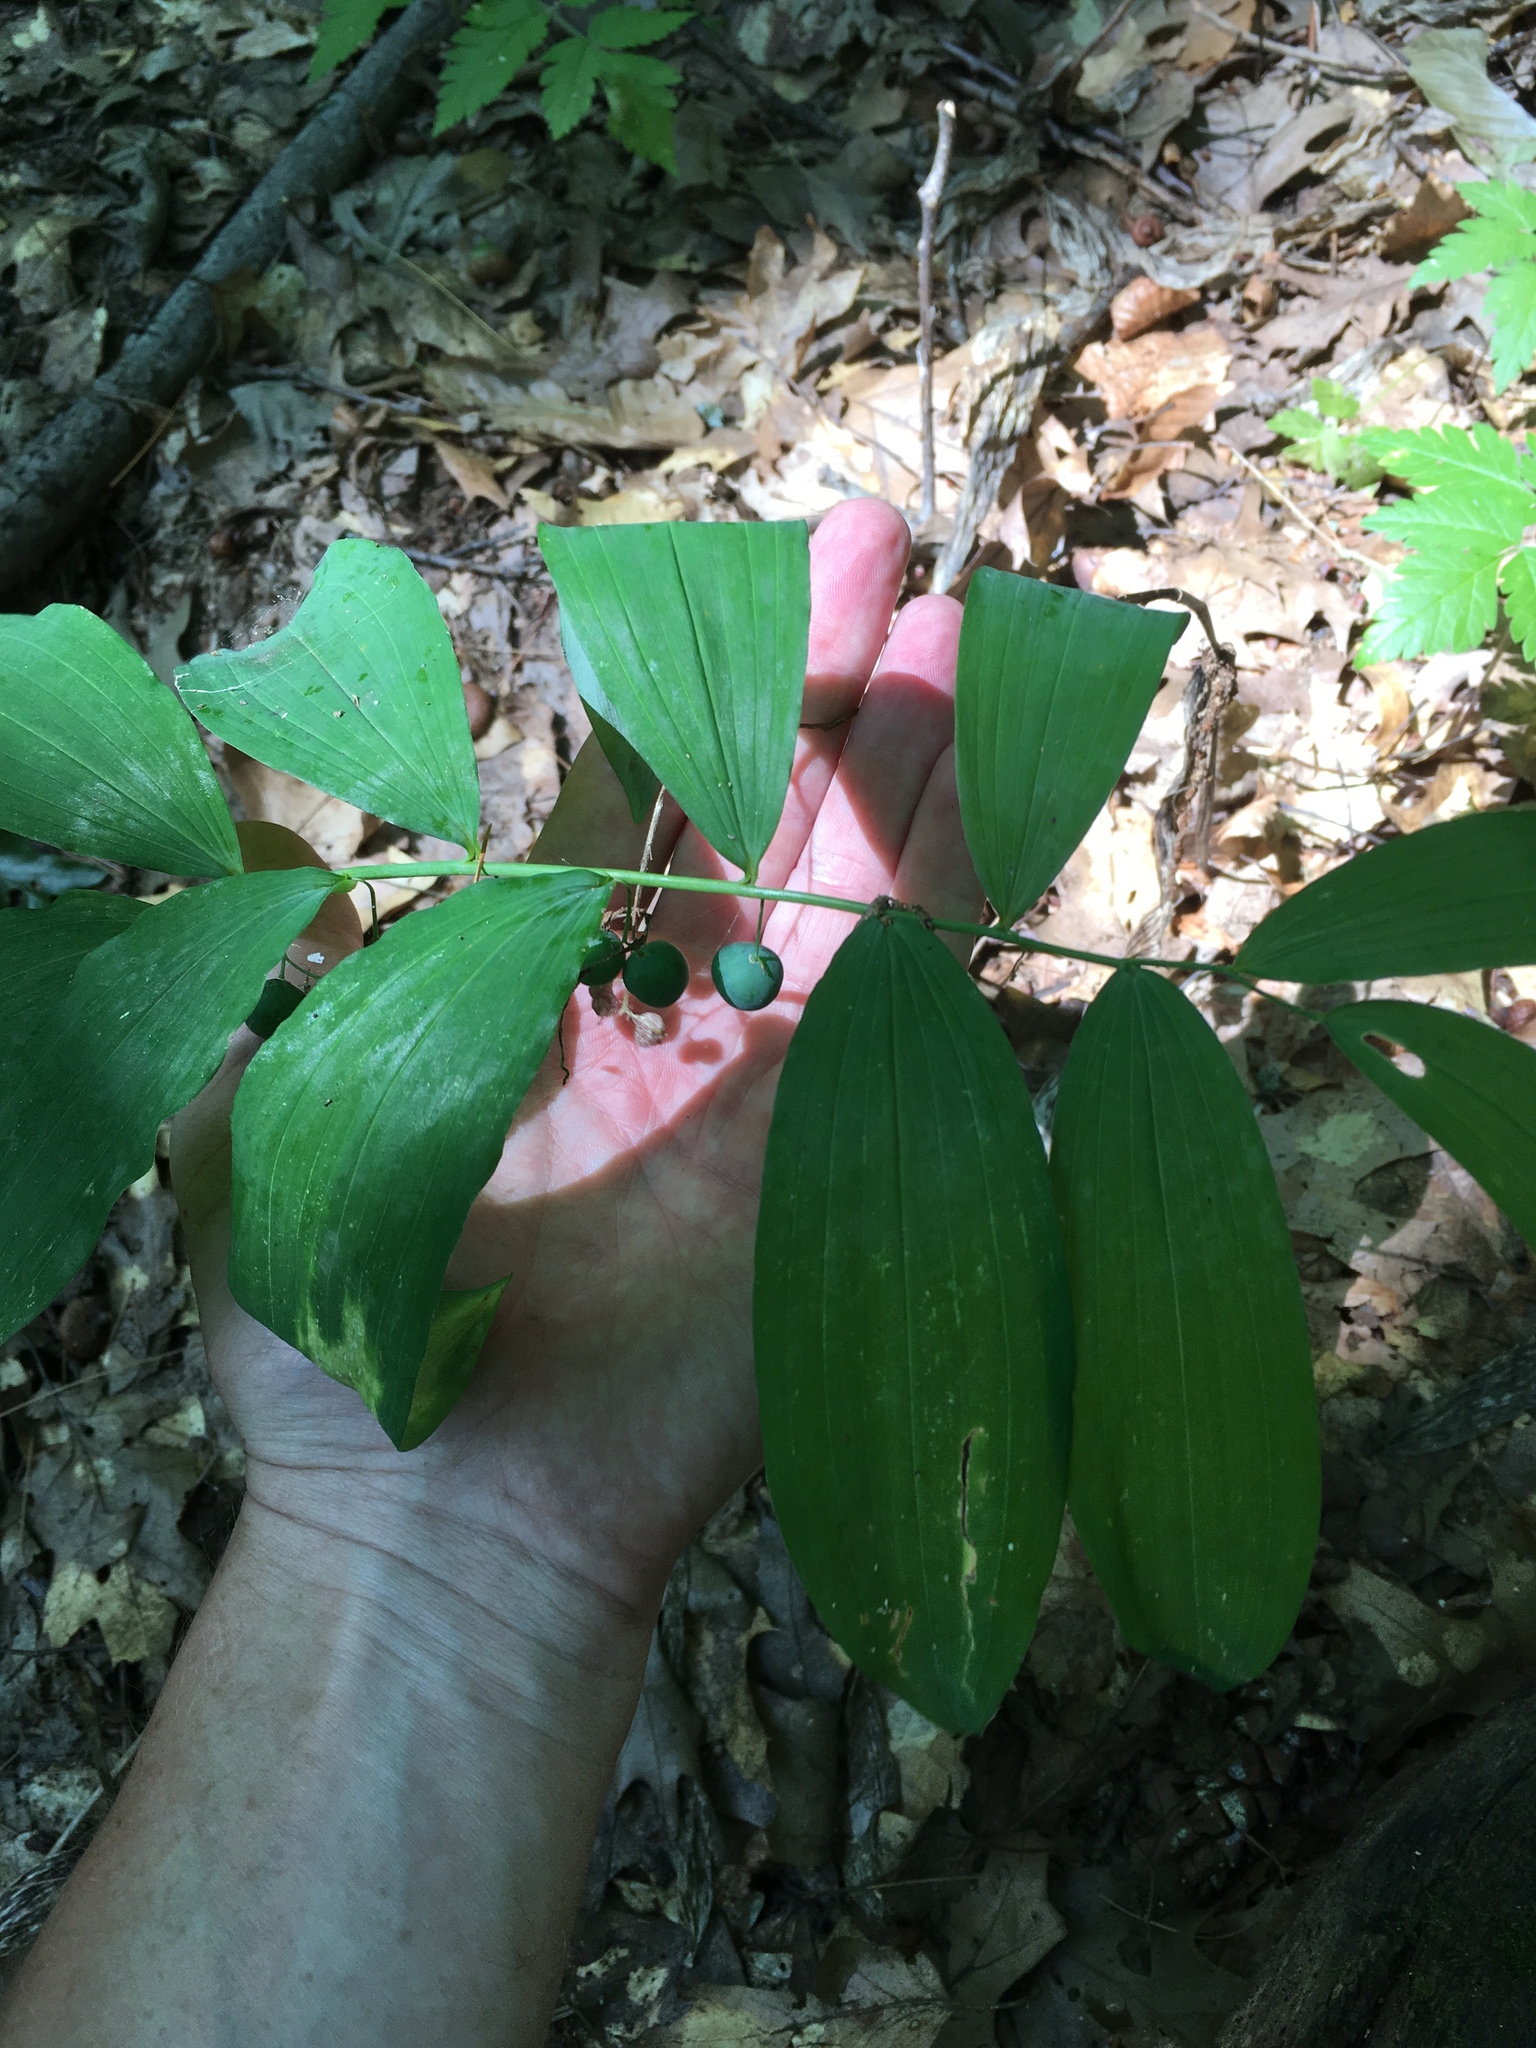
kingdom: Plantae
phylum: Tracheophyta
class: Liliopsida
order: Asparagales
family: Asparagaceae
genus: Polygonatum
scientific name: Polygonatum pubescens
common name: Downy solomon's seal
